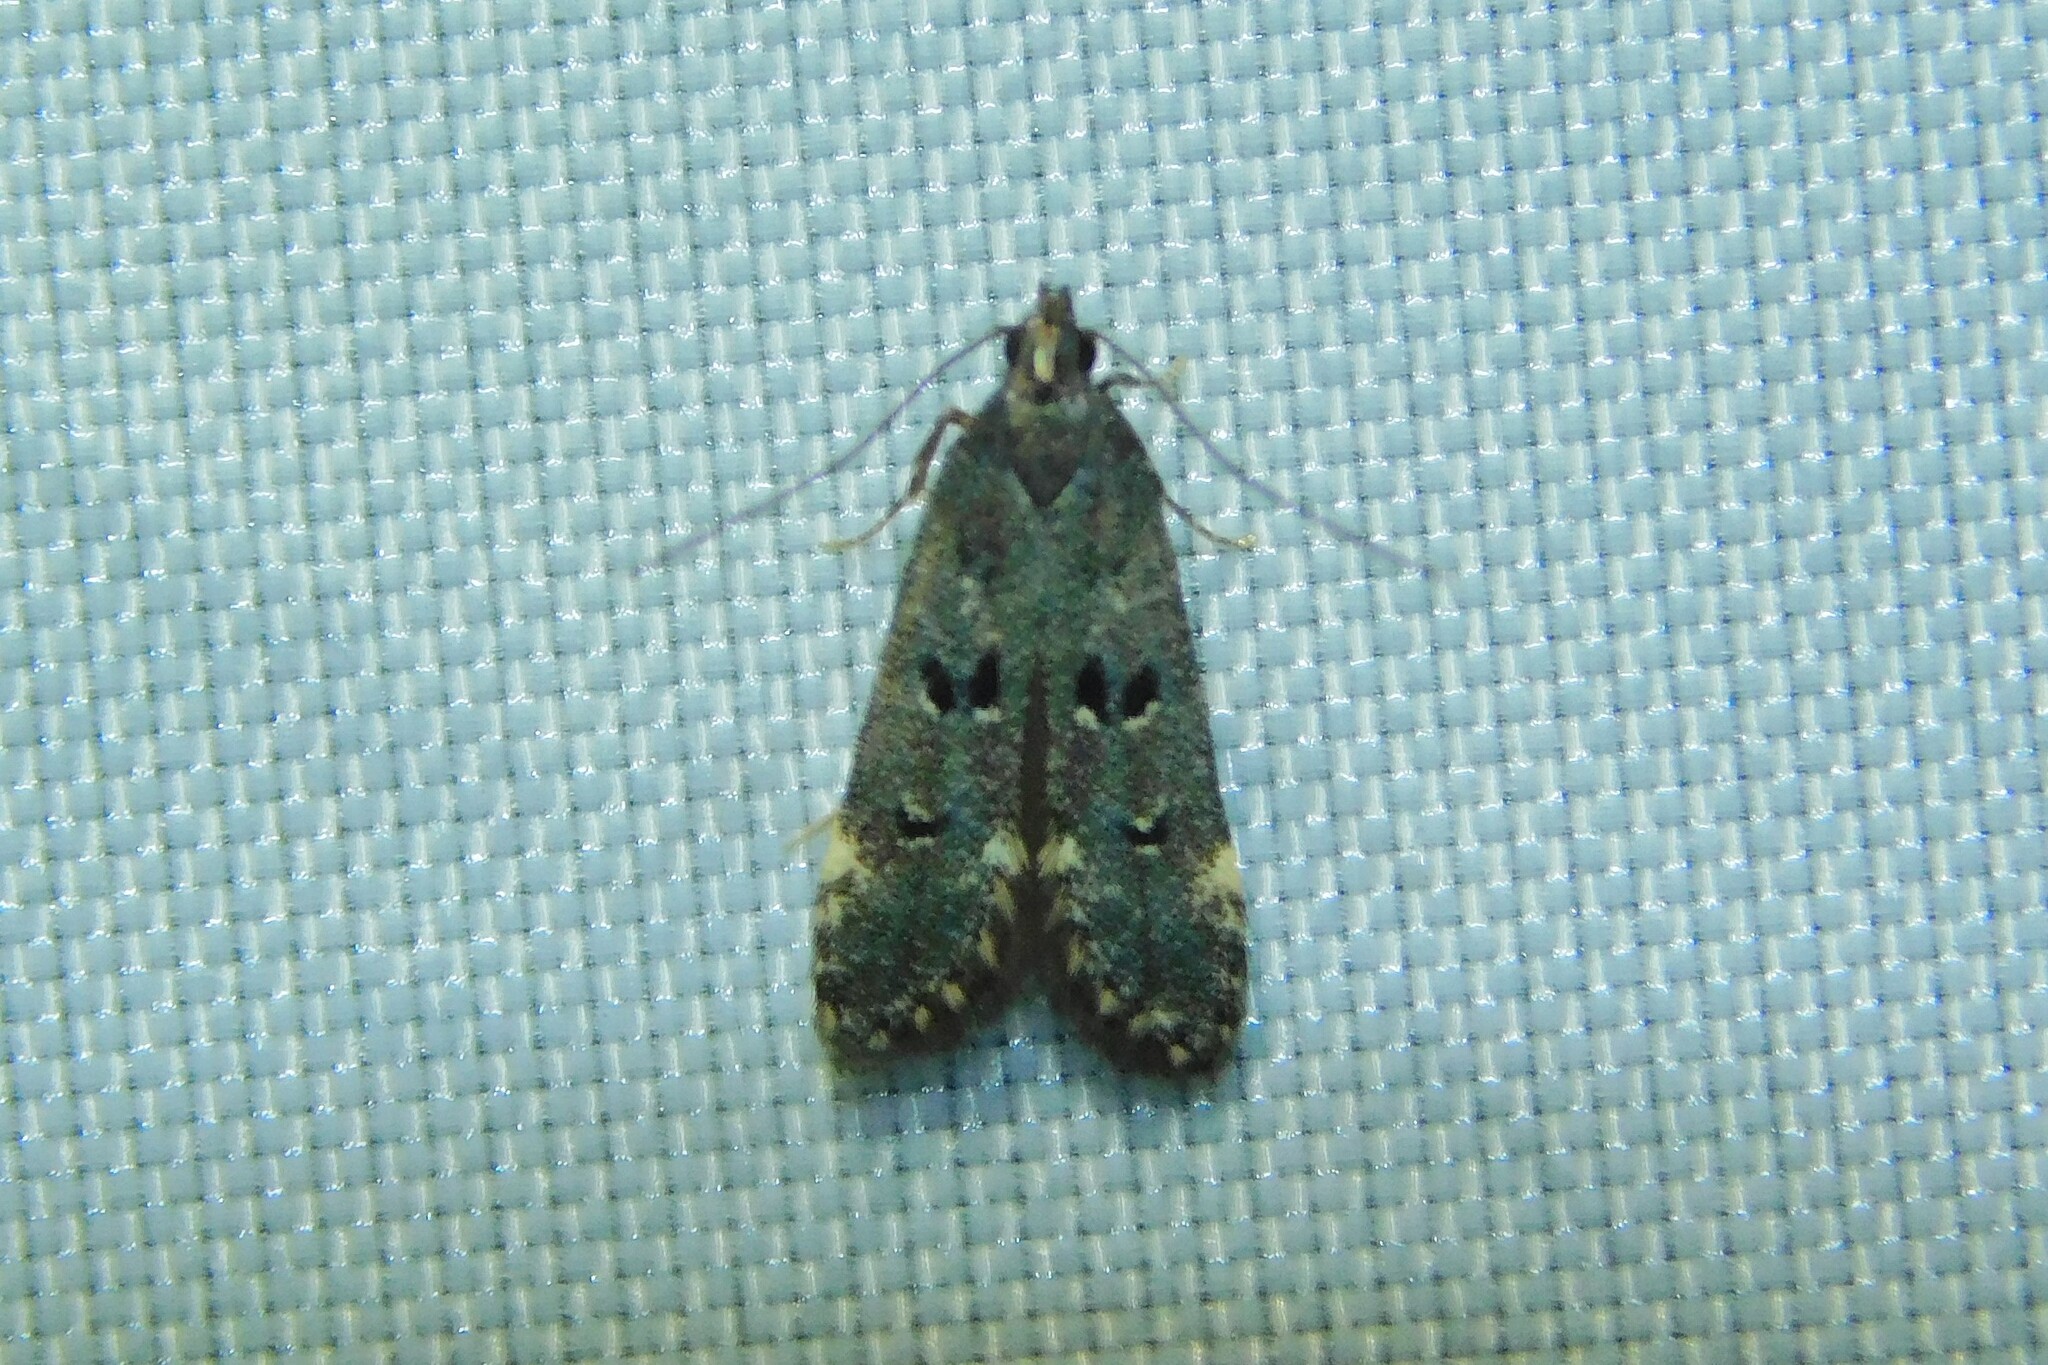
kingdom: Animalia
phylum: Arthropoda
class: Insecta
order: Lepidoptera
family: Gelechiidae
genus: Acanthophila
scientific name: Acanthophila alacella
